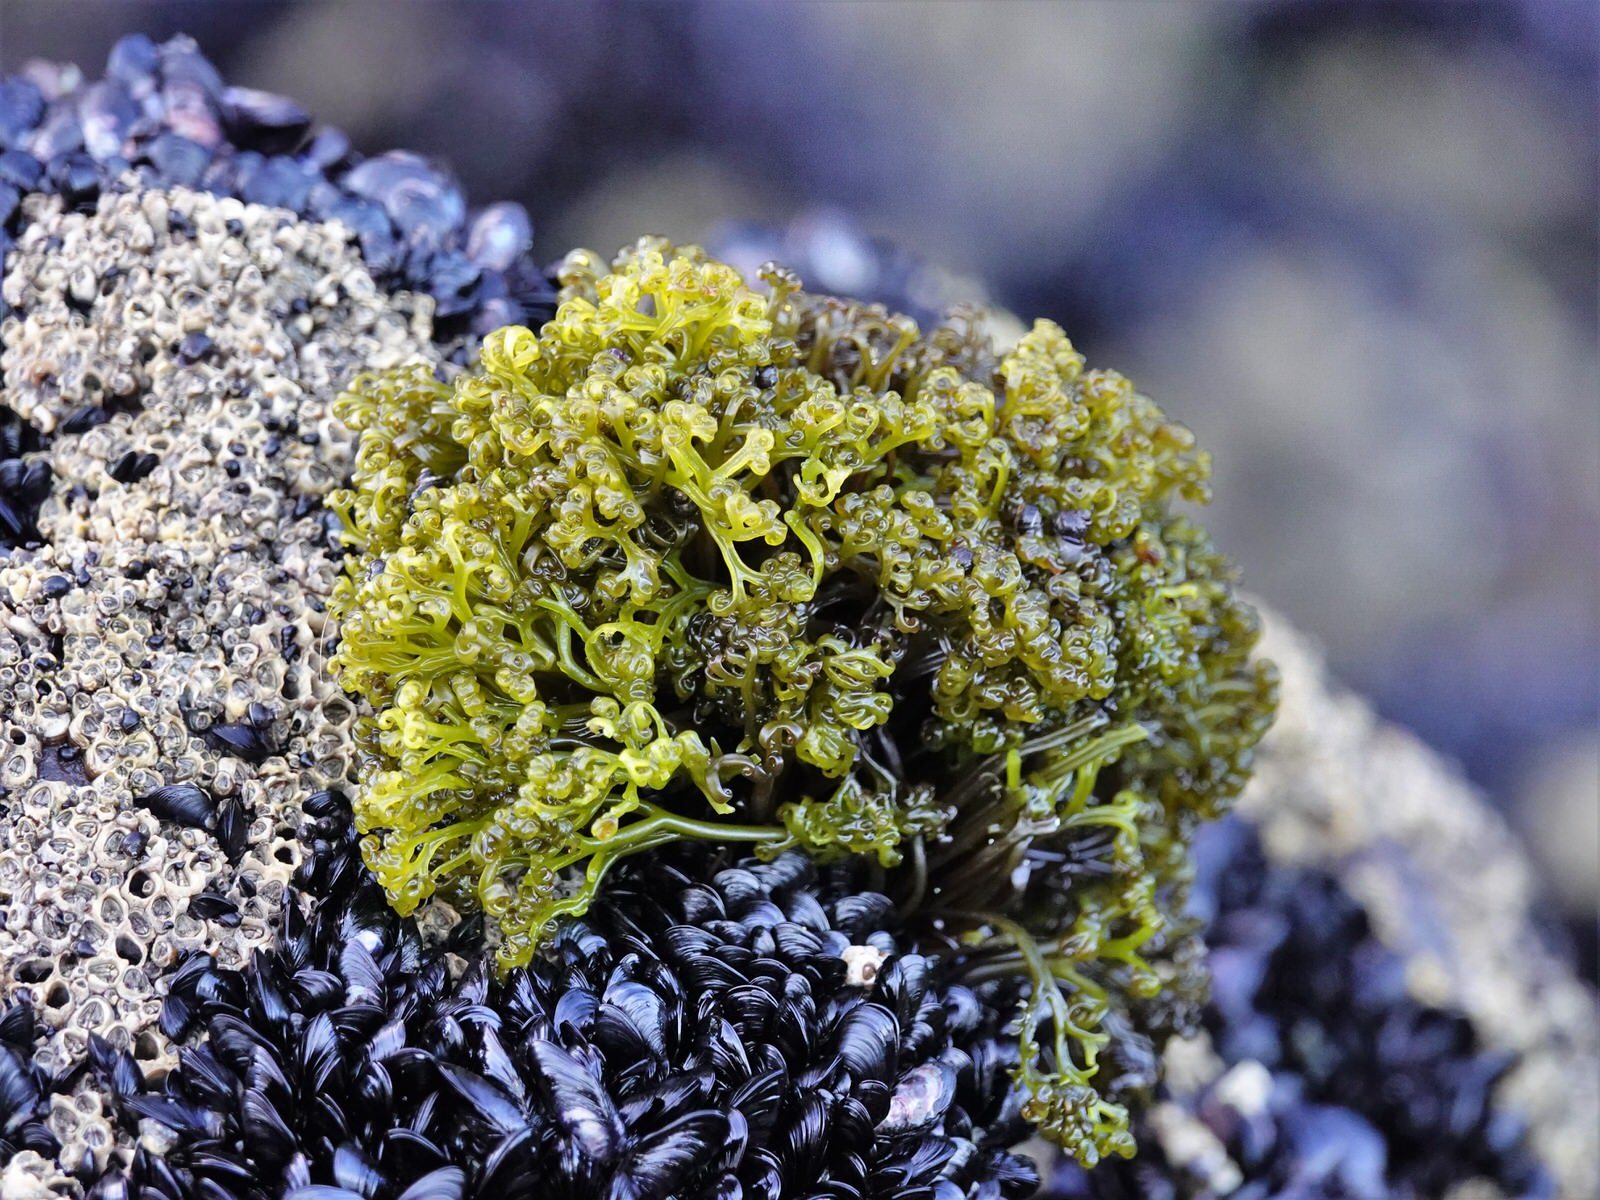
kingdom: Plantae
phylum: Rhodophyta
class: Florideophyceae
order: Gigartinales
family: Gigartinaceae
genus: Psilophycus
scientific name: Psilophycus alveatus
